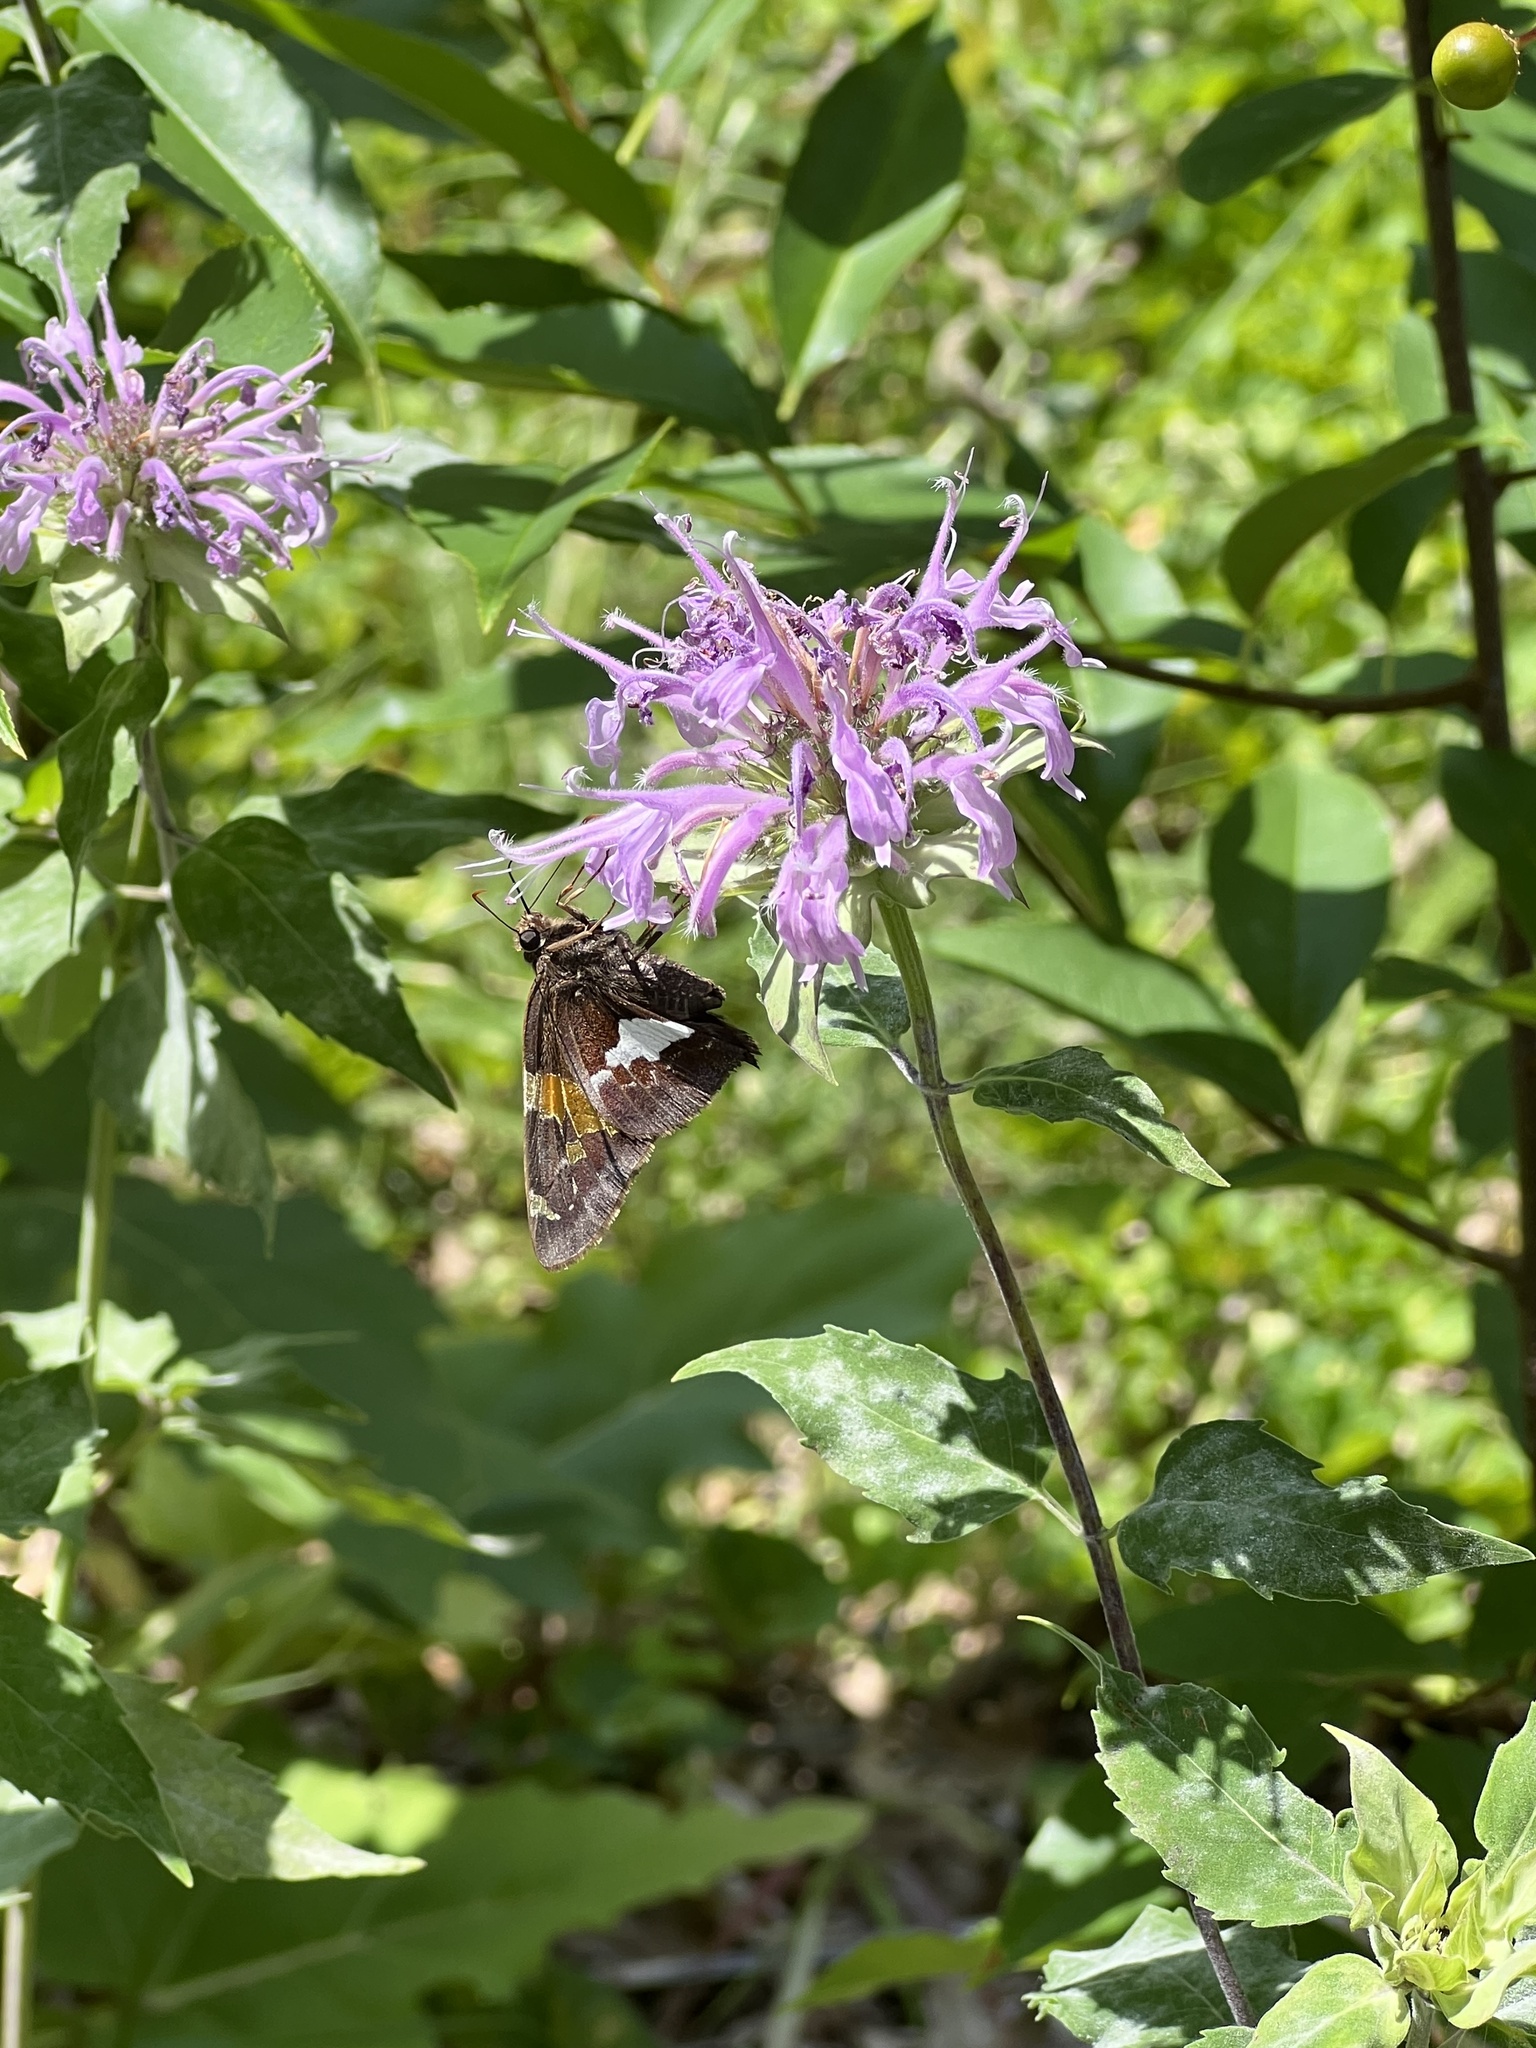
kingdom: Animalia
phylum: Arthropoda
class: Insecta
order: Lepidoptera
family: Hesperiidae
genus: Epargyreus
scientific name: Epargyreus clarus
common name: Silver-spotted skipper
